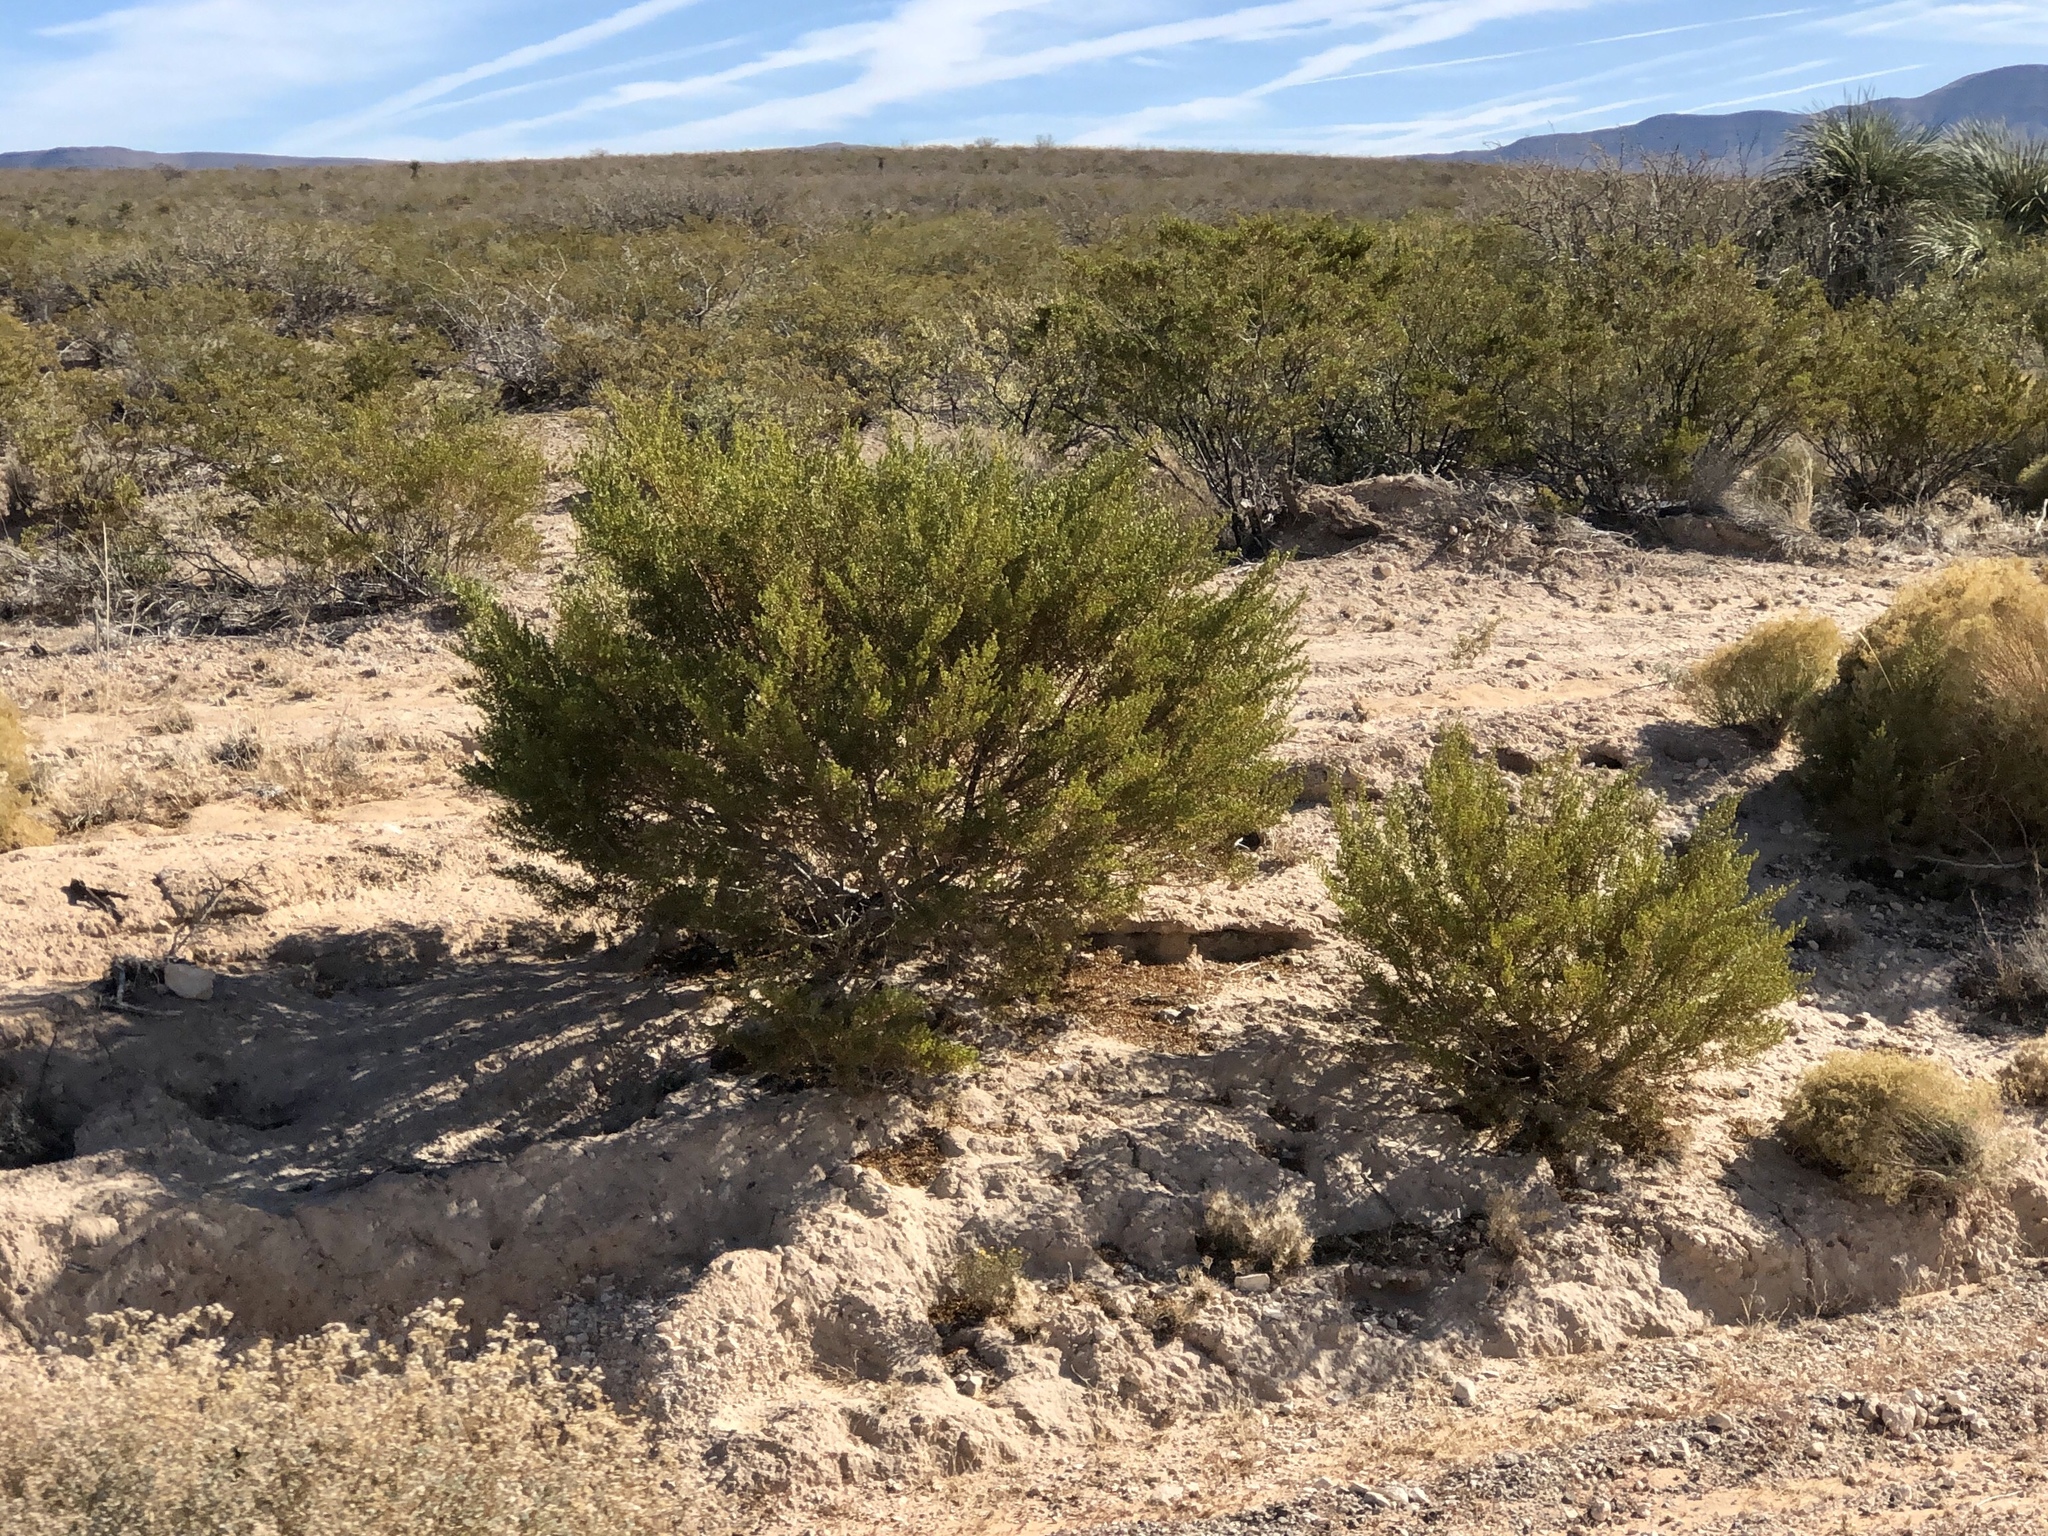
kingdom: Plantae
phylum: Tracheophyta
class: Magnoliopsida
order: Zygophyllales
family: Zygophyllaceae
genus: Larrea
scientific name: Larrea tridentata
